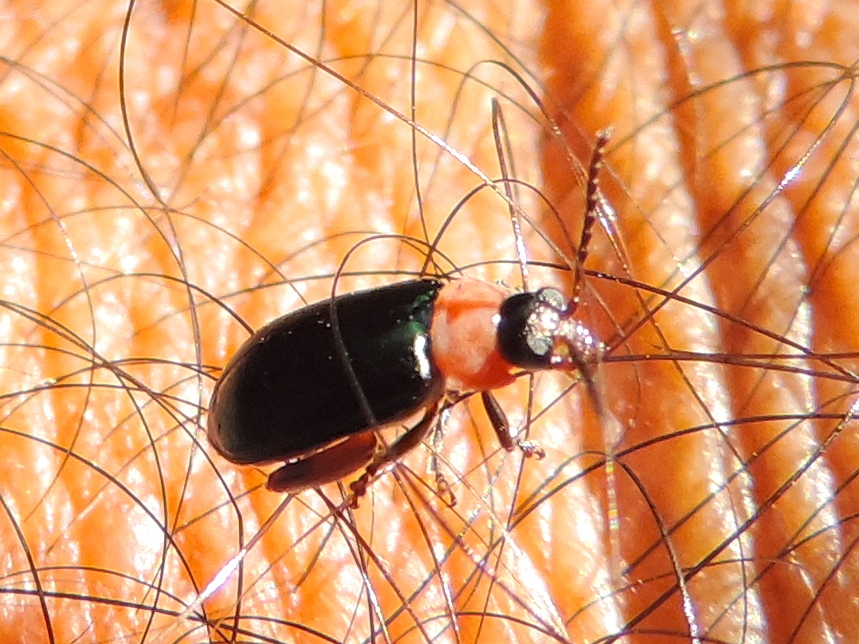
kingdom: Animalia
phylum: Arthropoda
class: Insecta
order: Coleoptera
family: Chrysomelidae
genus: Alticini
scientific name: Alticini
